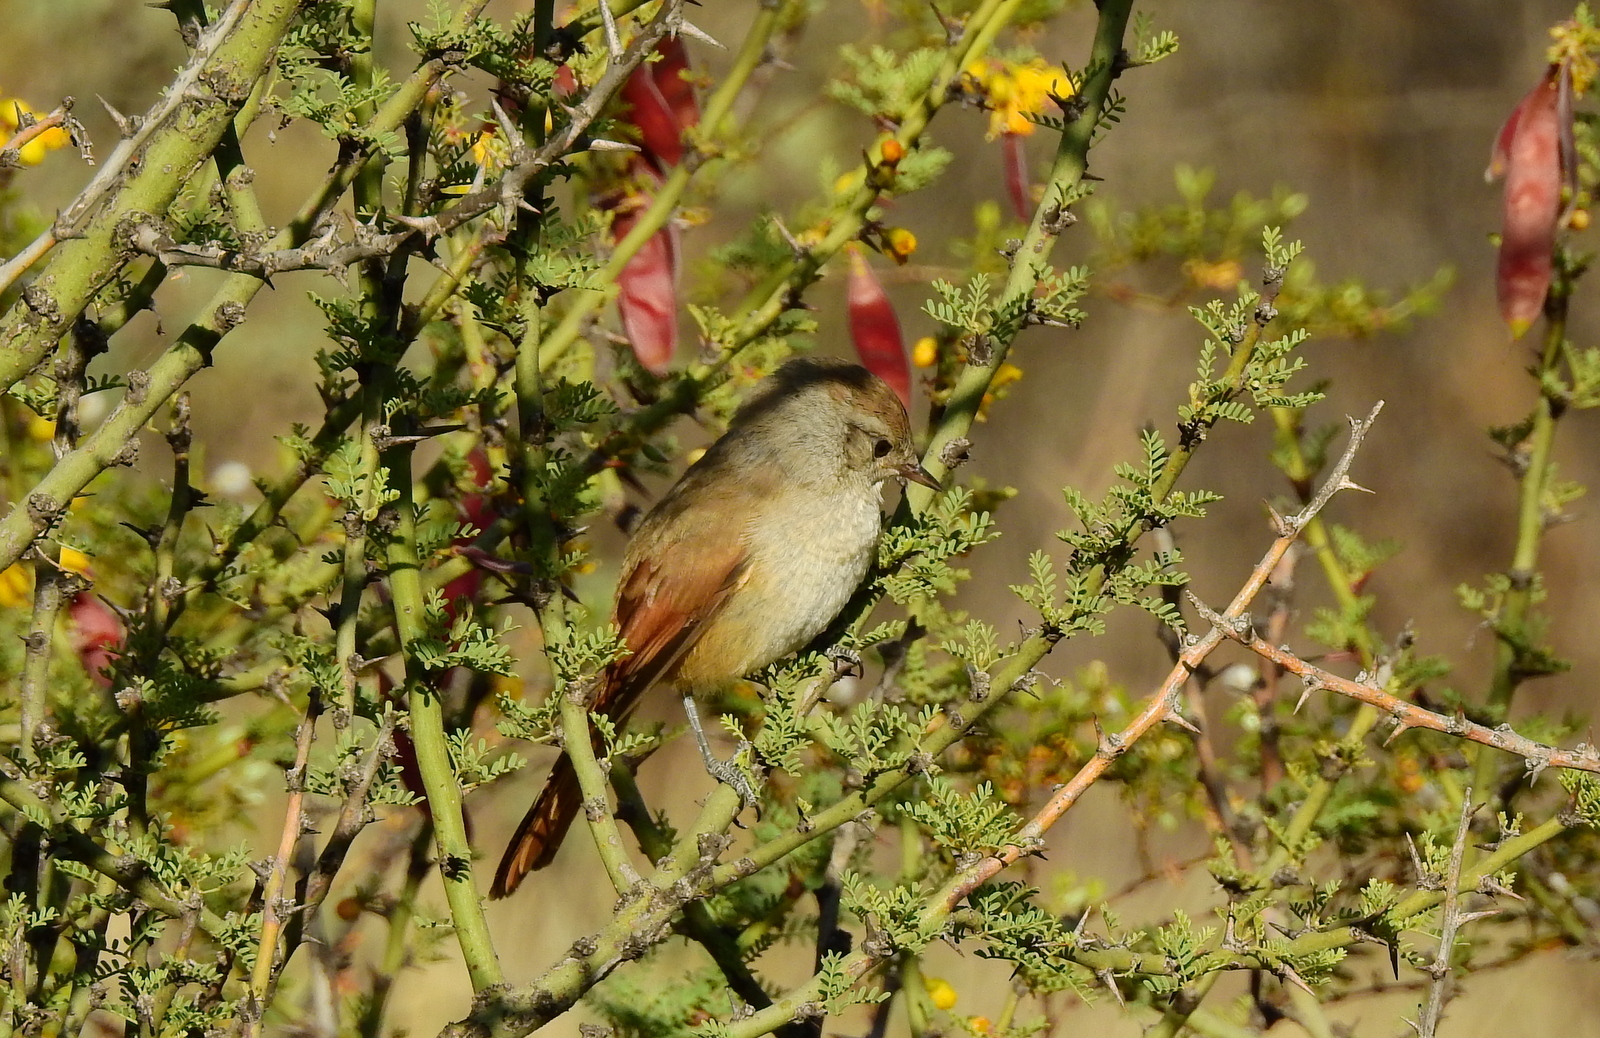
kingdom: Animalia
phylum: Chordata
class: Aves
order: Passeriformes
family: Furnariidae
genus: Asthenes
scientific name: Asthenes steinbachi
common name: Steinbach's canastero
